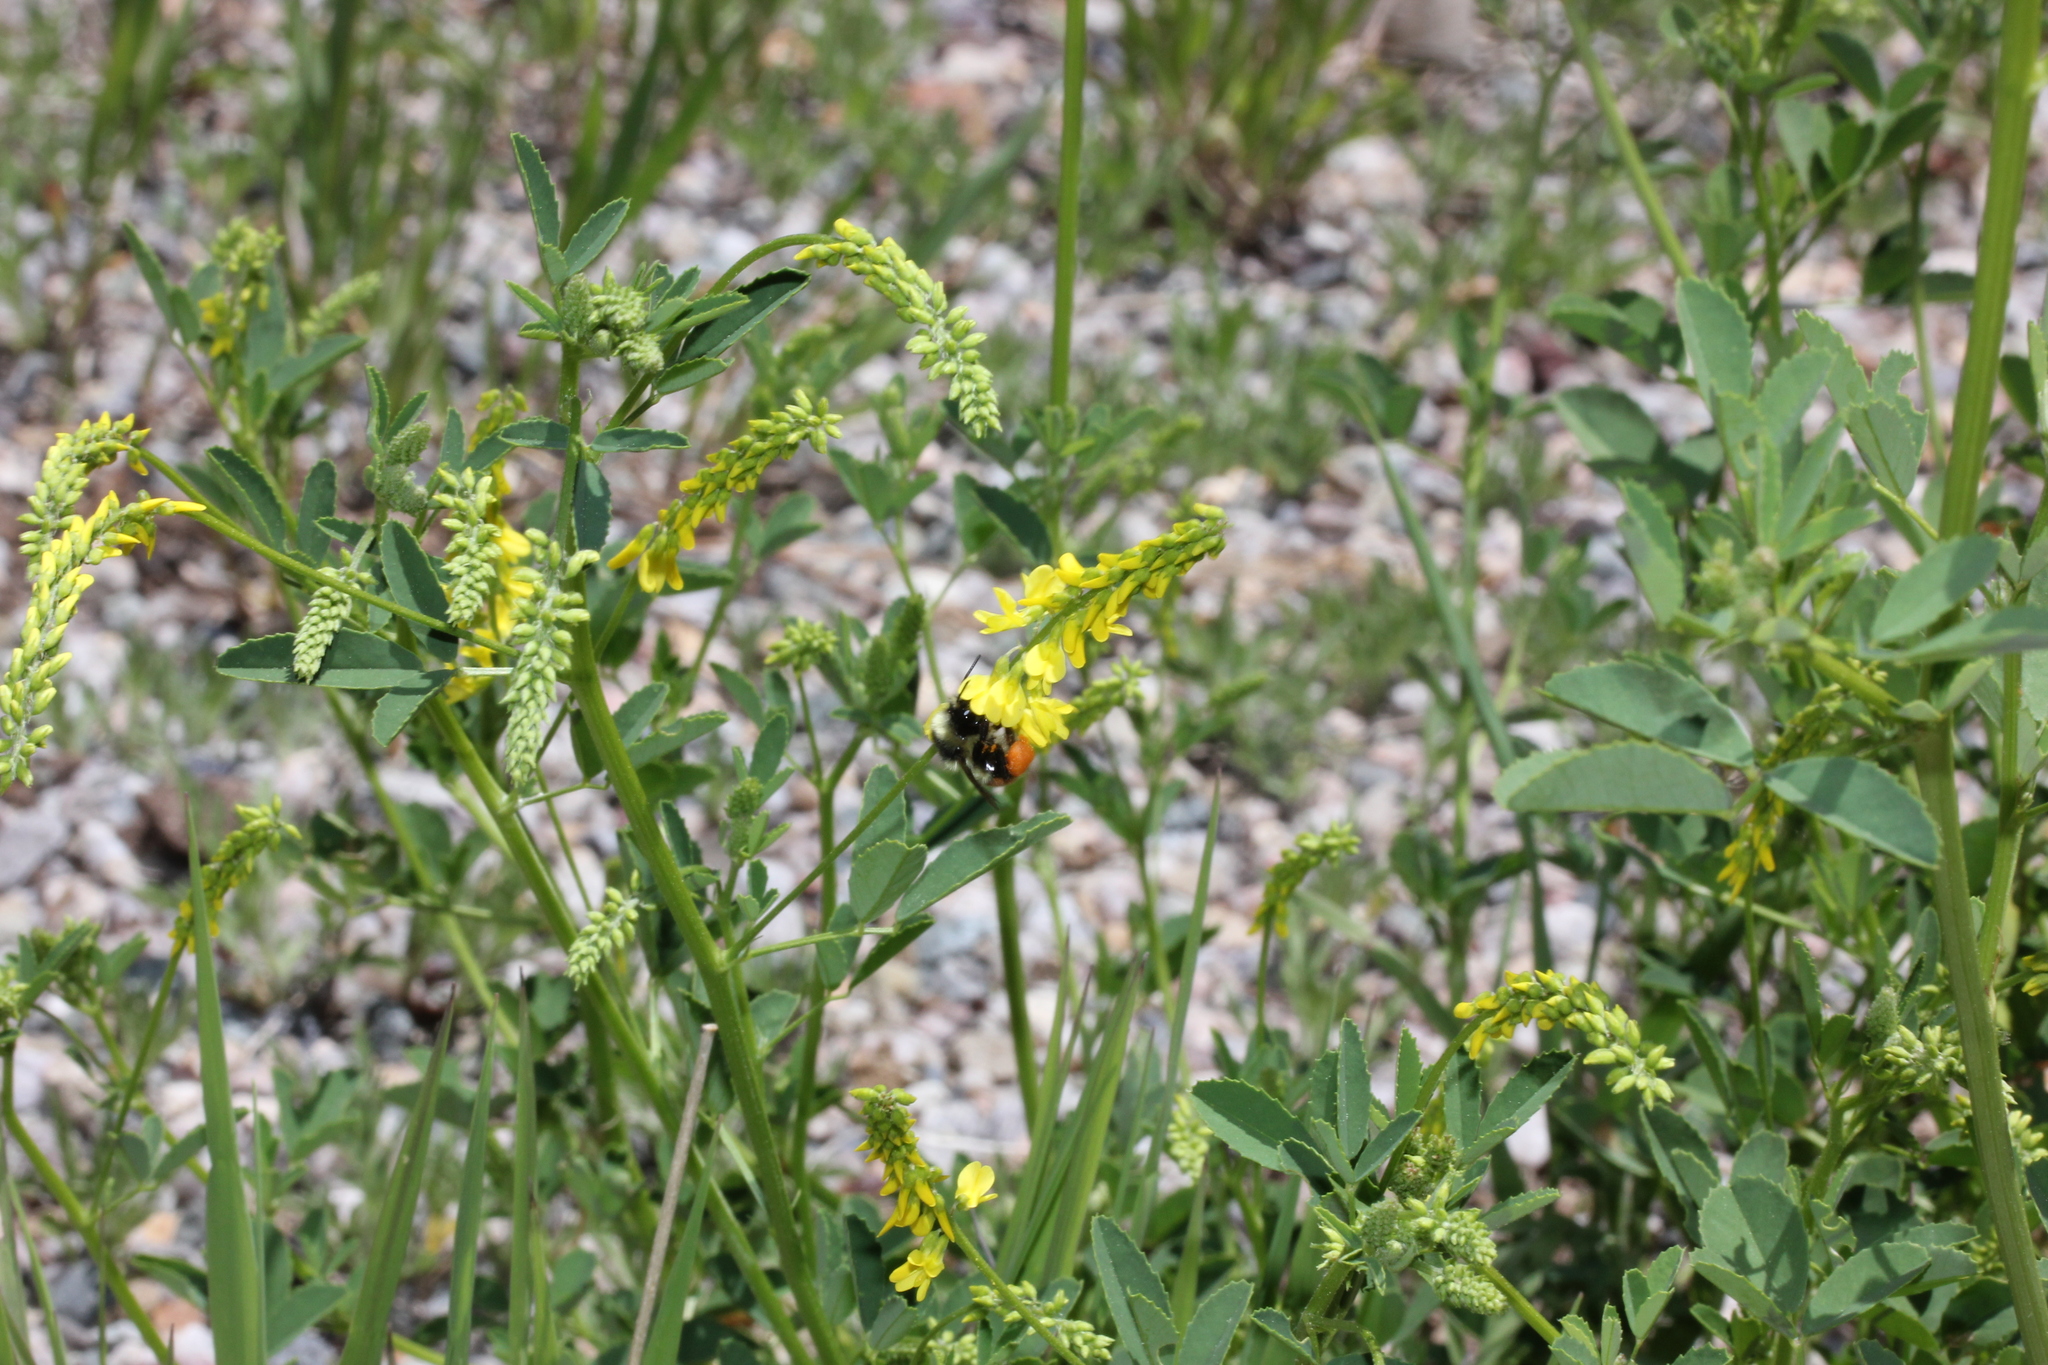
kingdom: Plantae
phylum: Tracheophyta
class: Magnoliopsida
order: Fabales
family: Fabaceae
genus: Melilotus
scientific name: Melilotus officinalis
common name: Sweetclover
